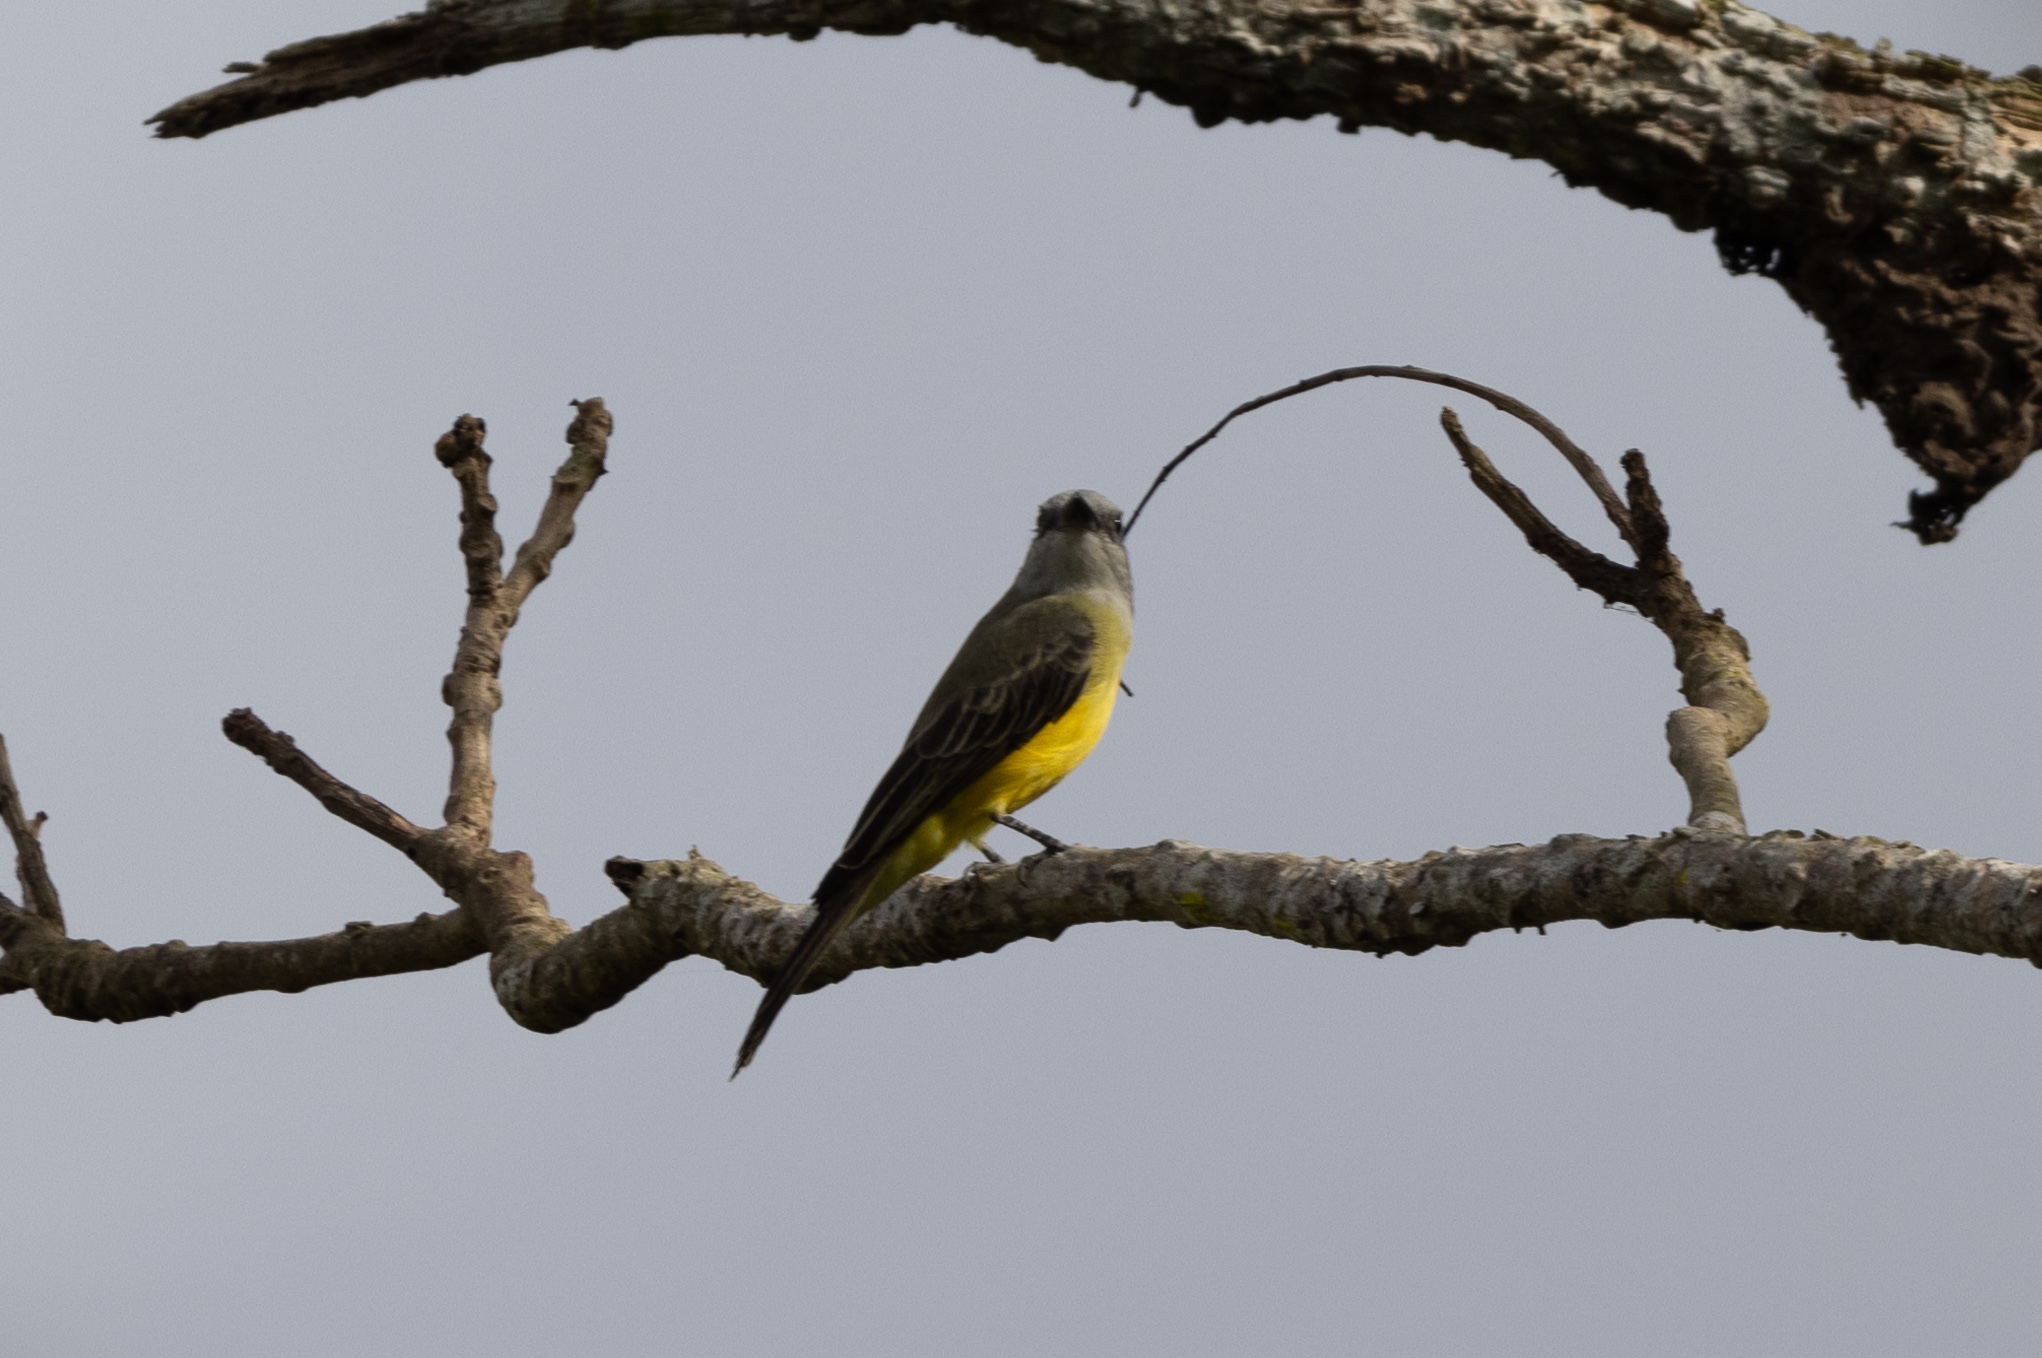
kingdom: Animalia
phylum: Chordata
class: Aves
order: Passeriformes
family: Tyrannidae
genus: Tyrannus
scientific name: Tyrannus melancholicus
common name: Tropical kingbird
